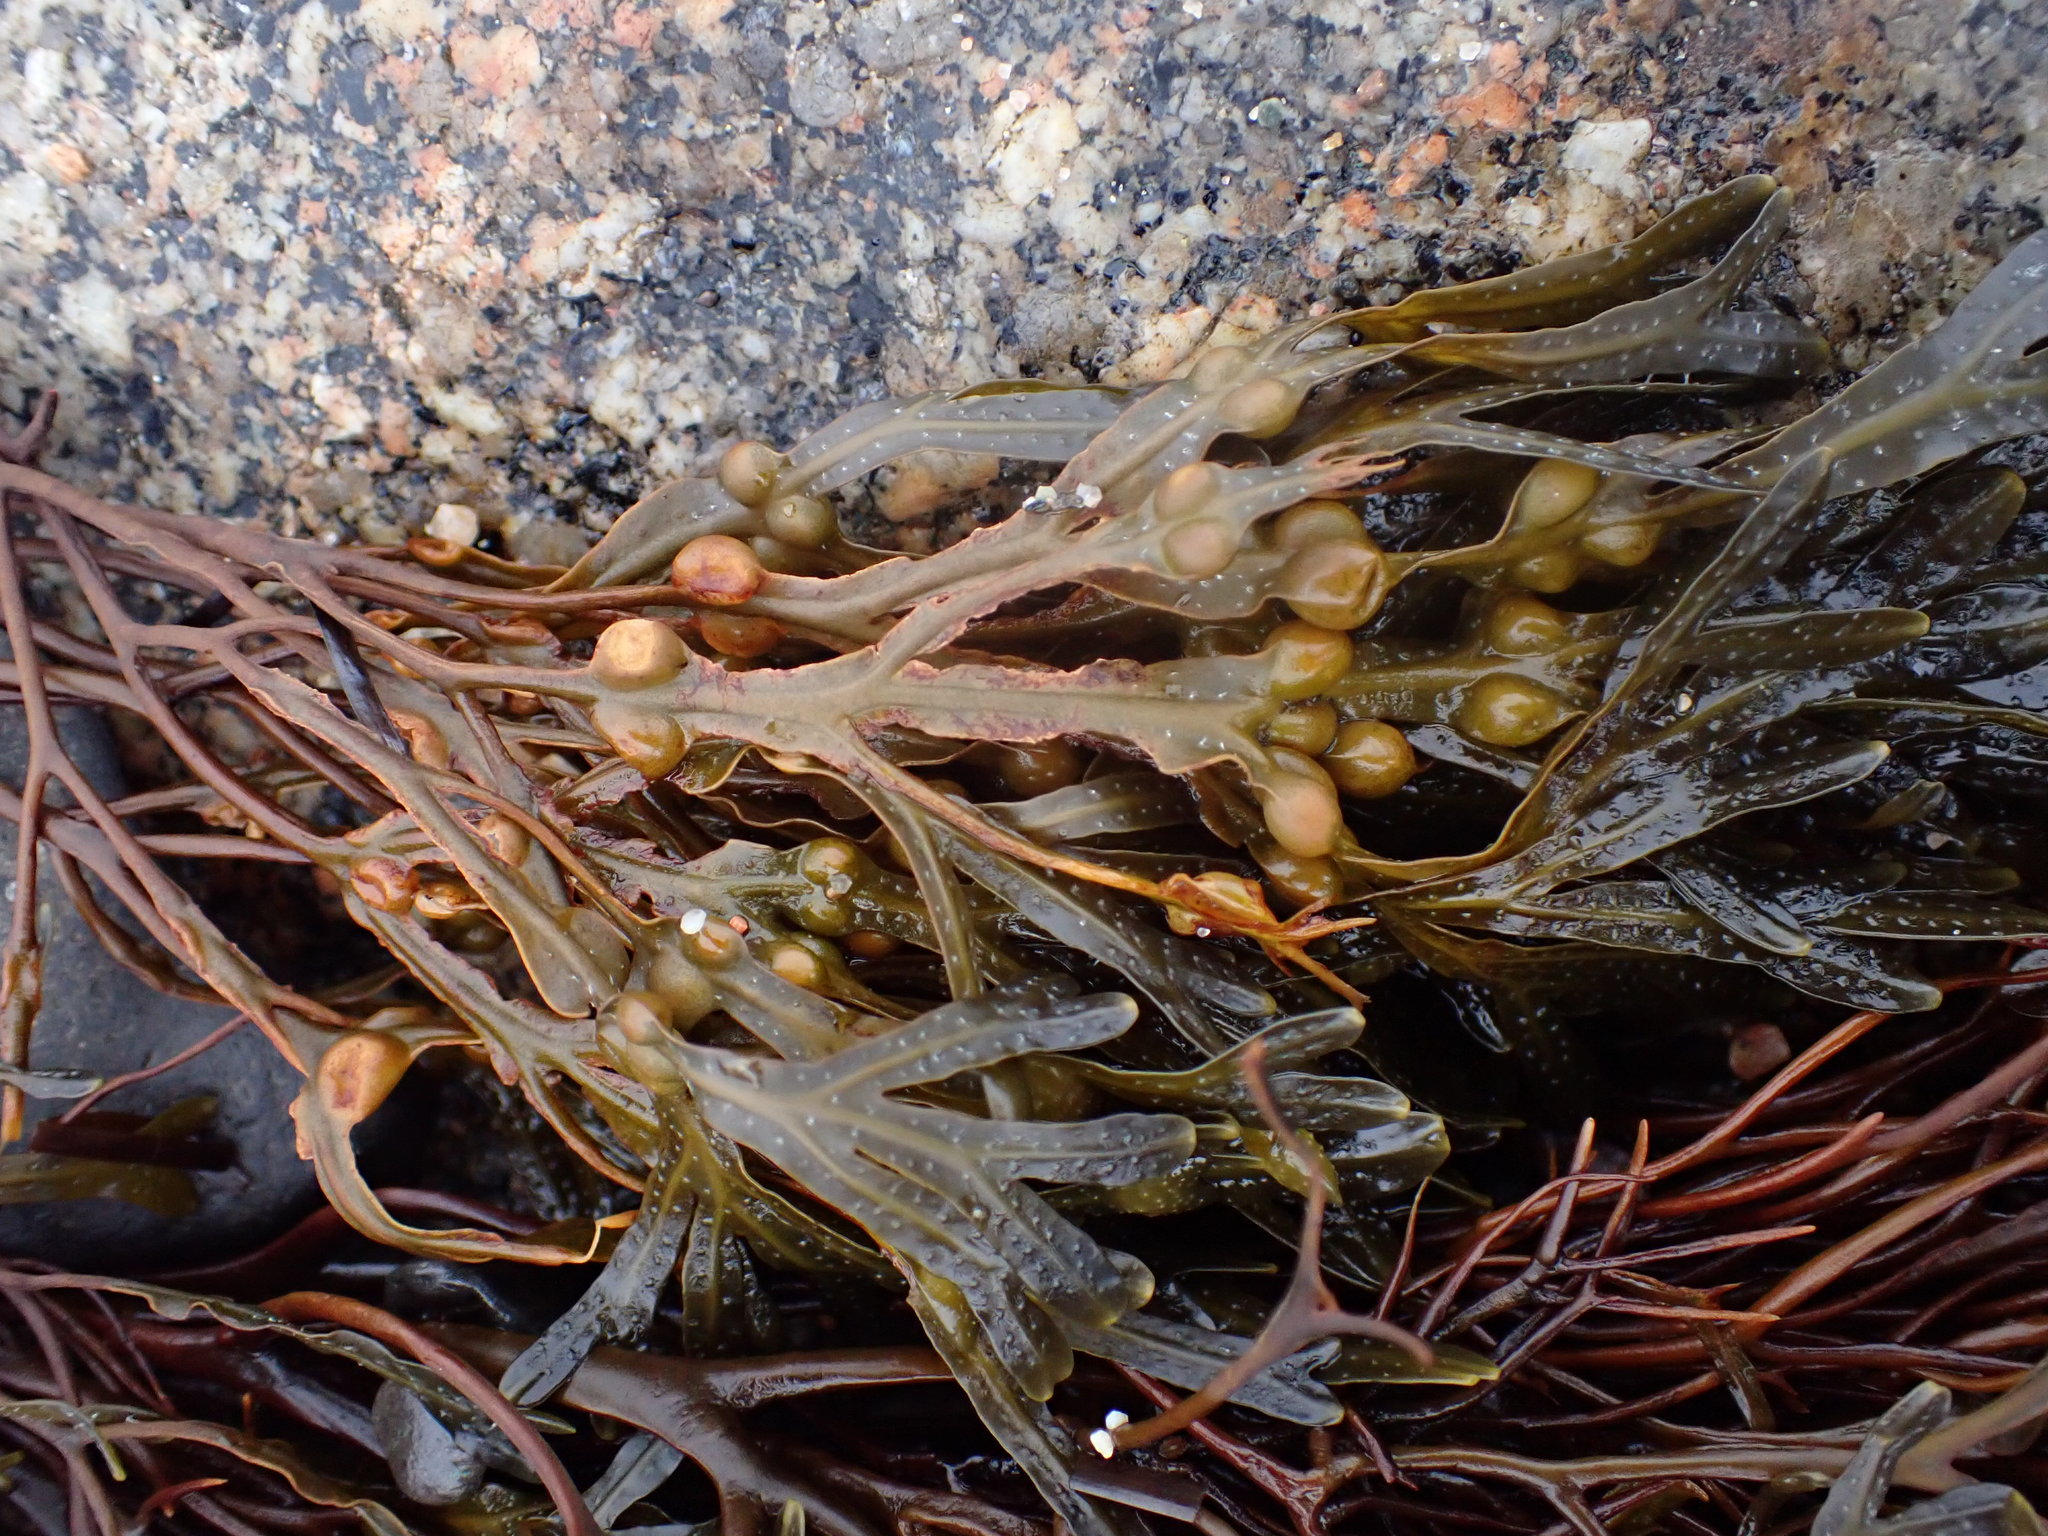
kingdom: Chromista
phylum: Ochrophyta
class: Phaeophyceae
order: Fucales
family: Fucaceae
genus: Fucus
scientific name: Fucus vesiculosus
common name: Bladder wrack
